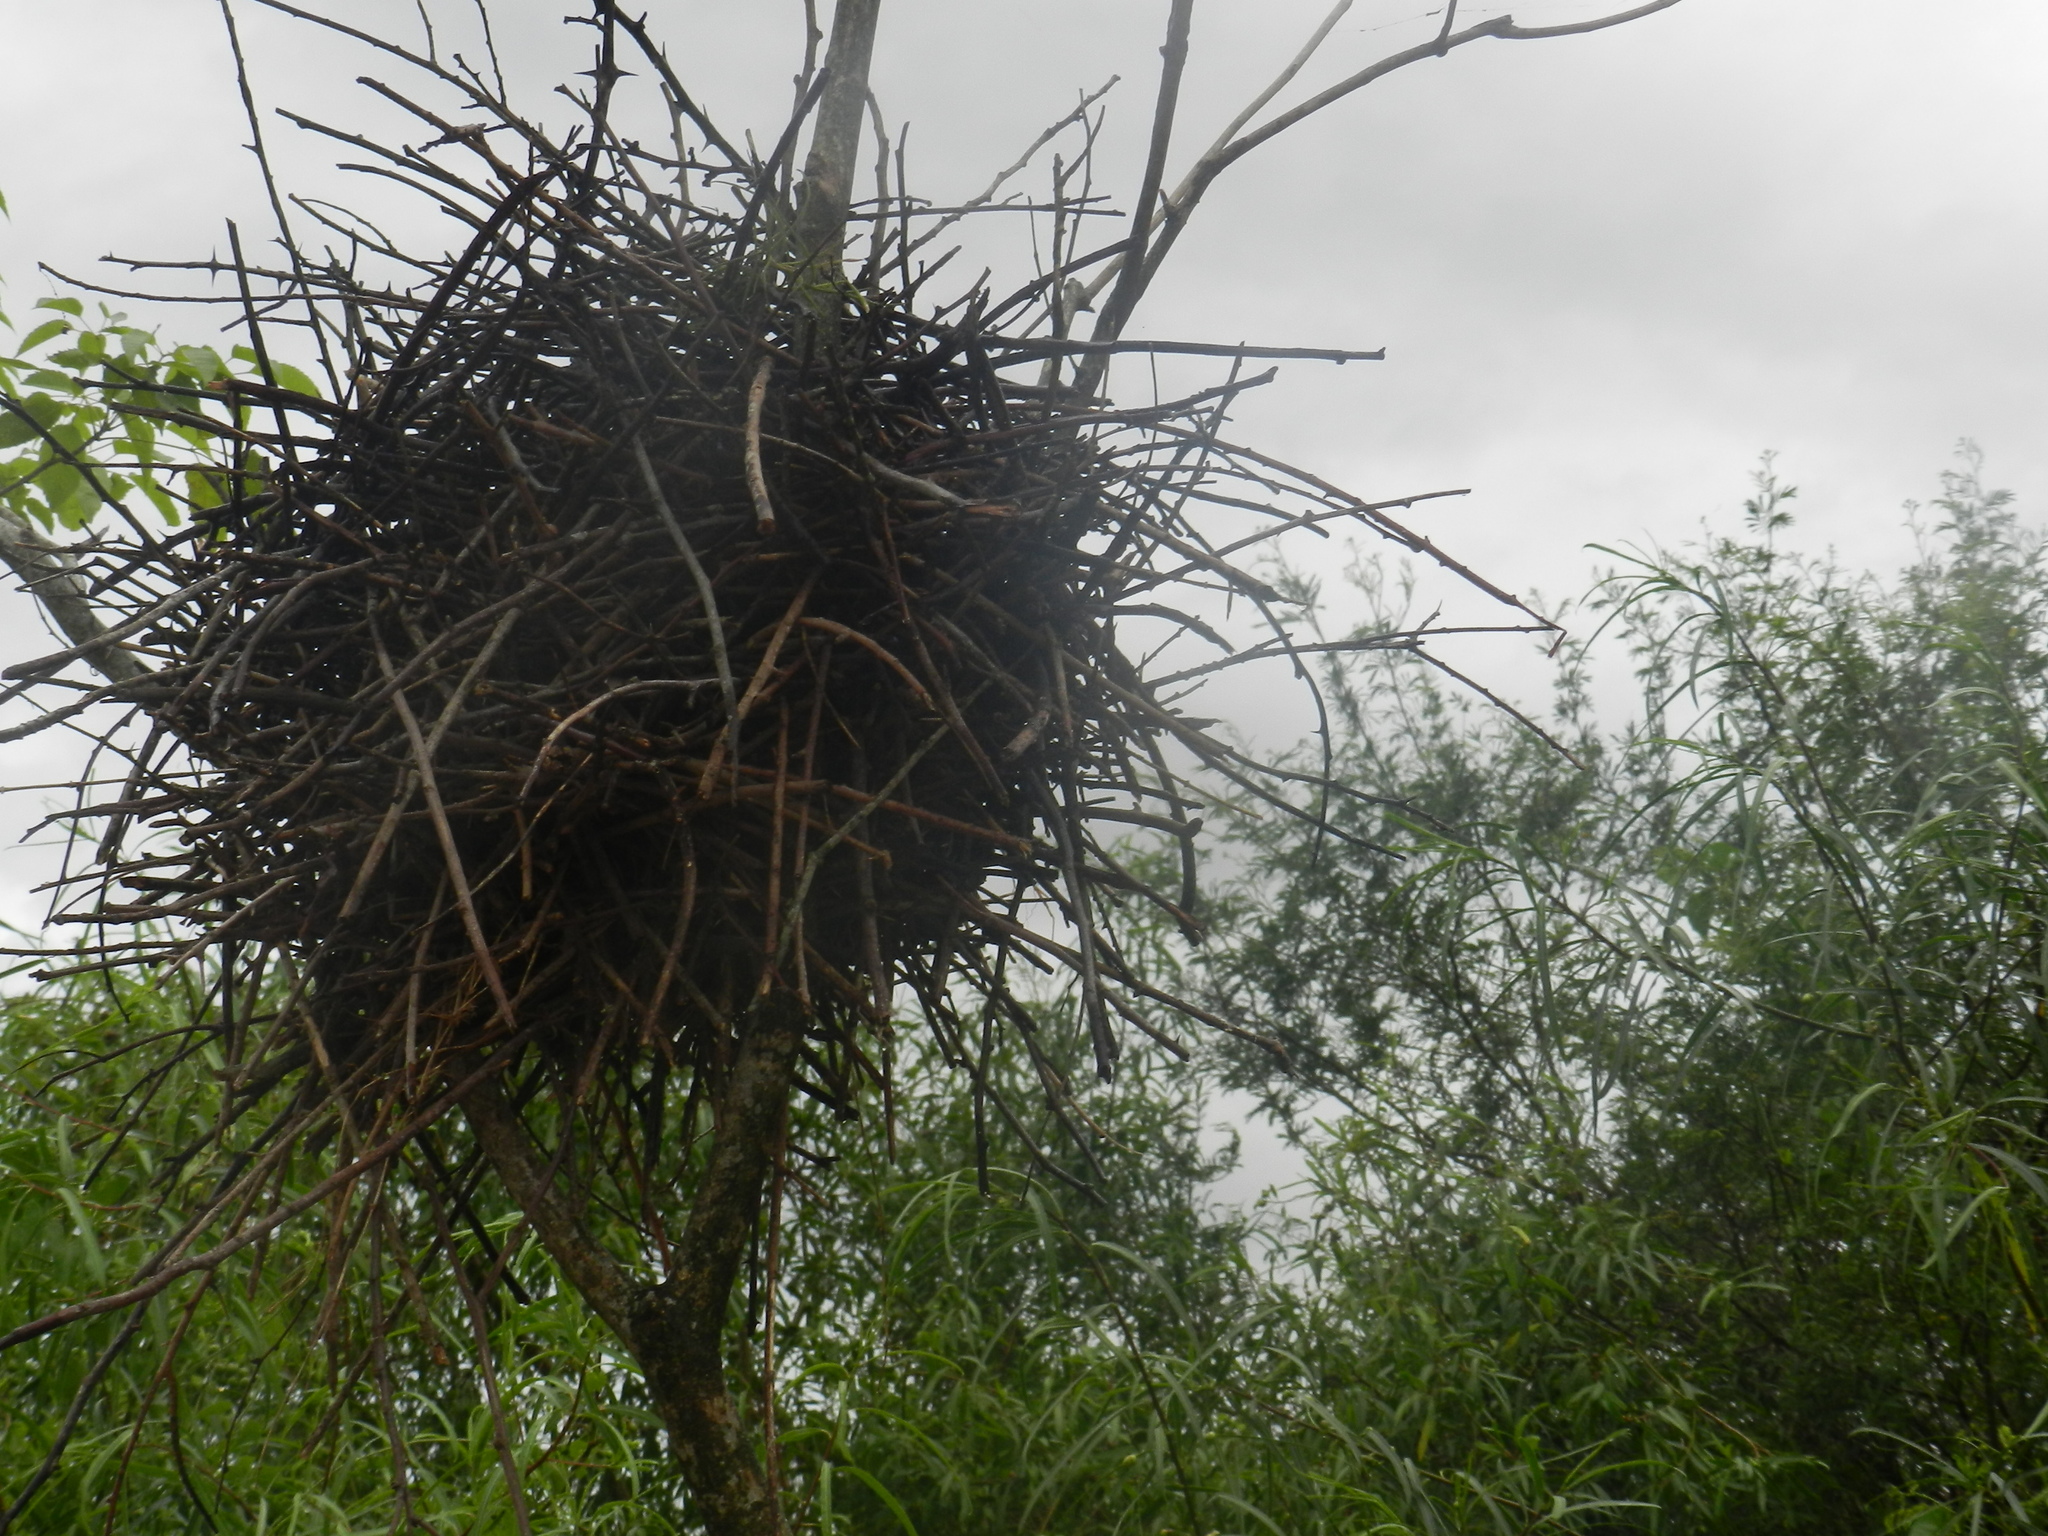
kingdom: Animalia
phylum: Chordata
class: Aves
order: Passeriformes
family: Furnariidae
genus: Phacellodomus
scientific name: Phacellodomus ruber
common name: Greater thornbird
